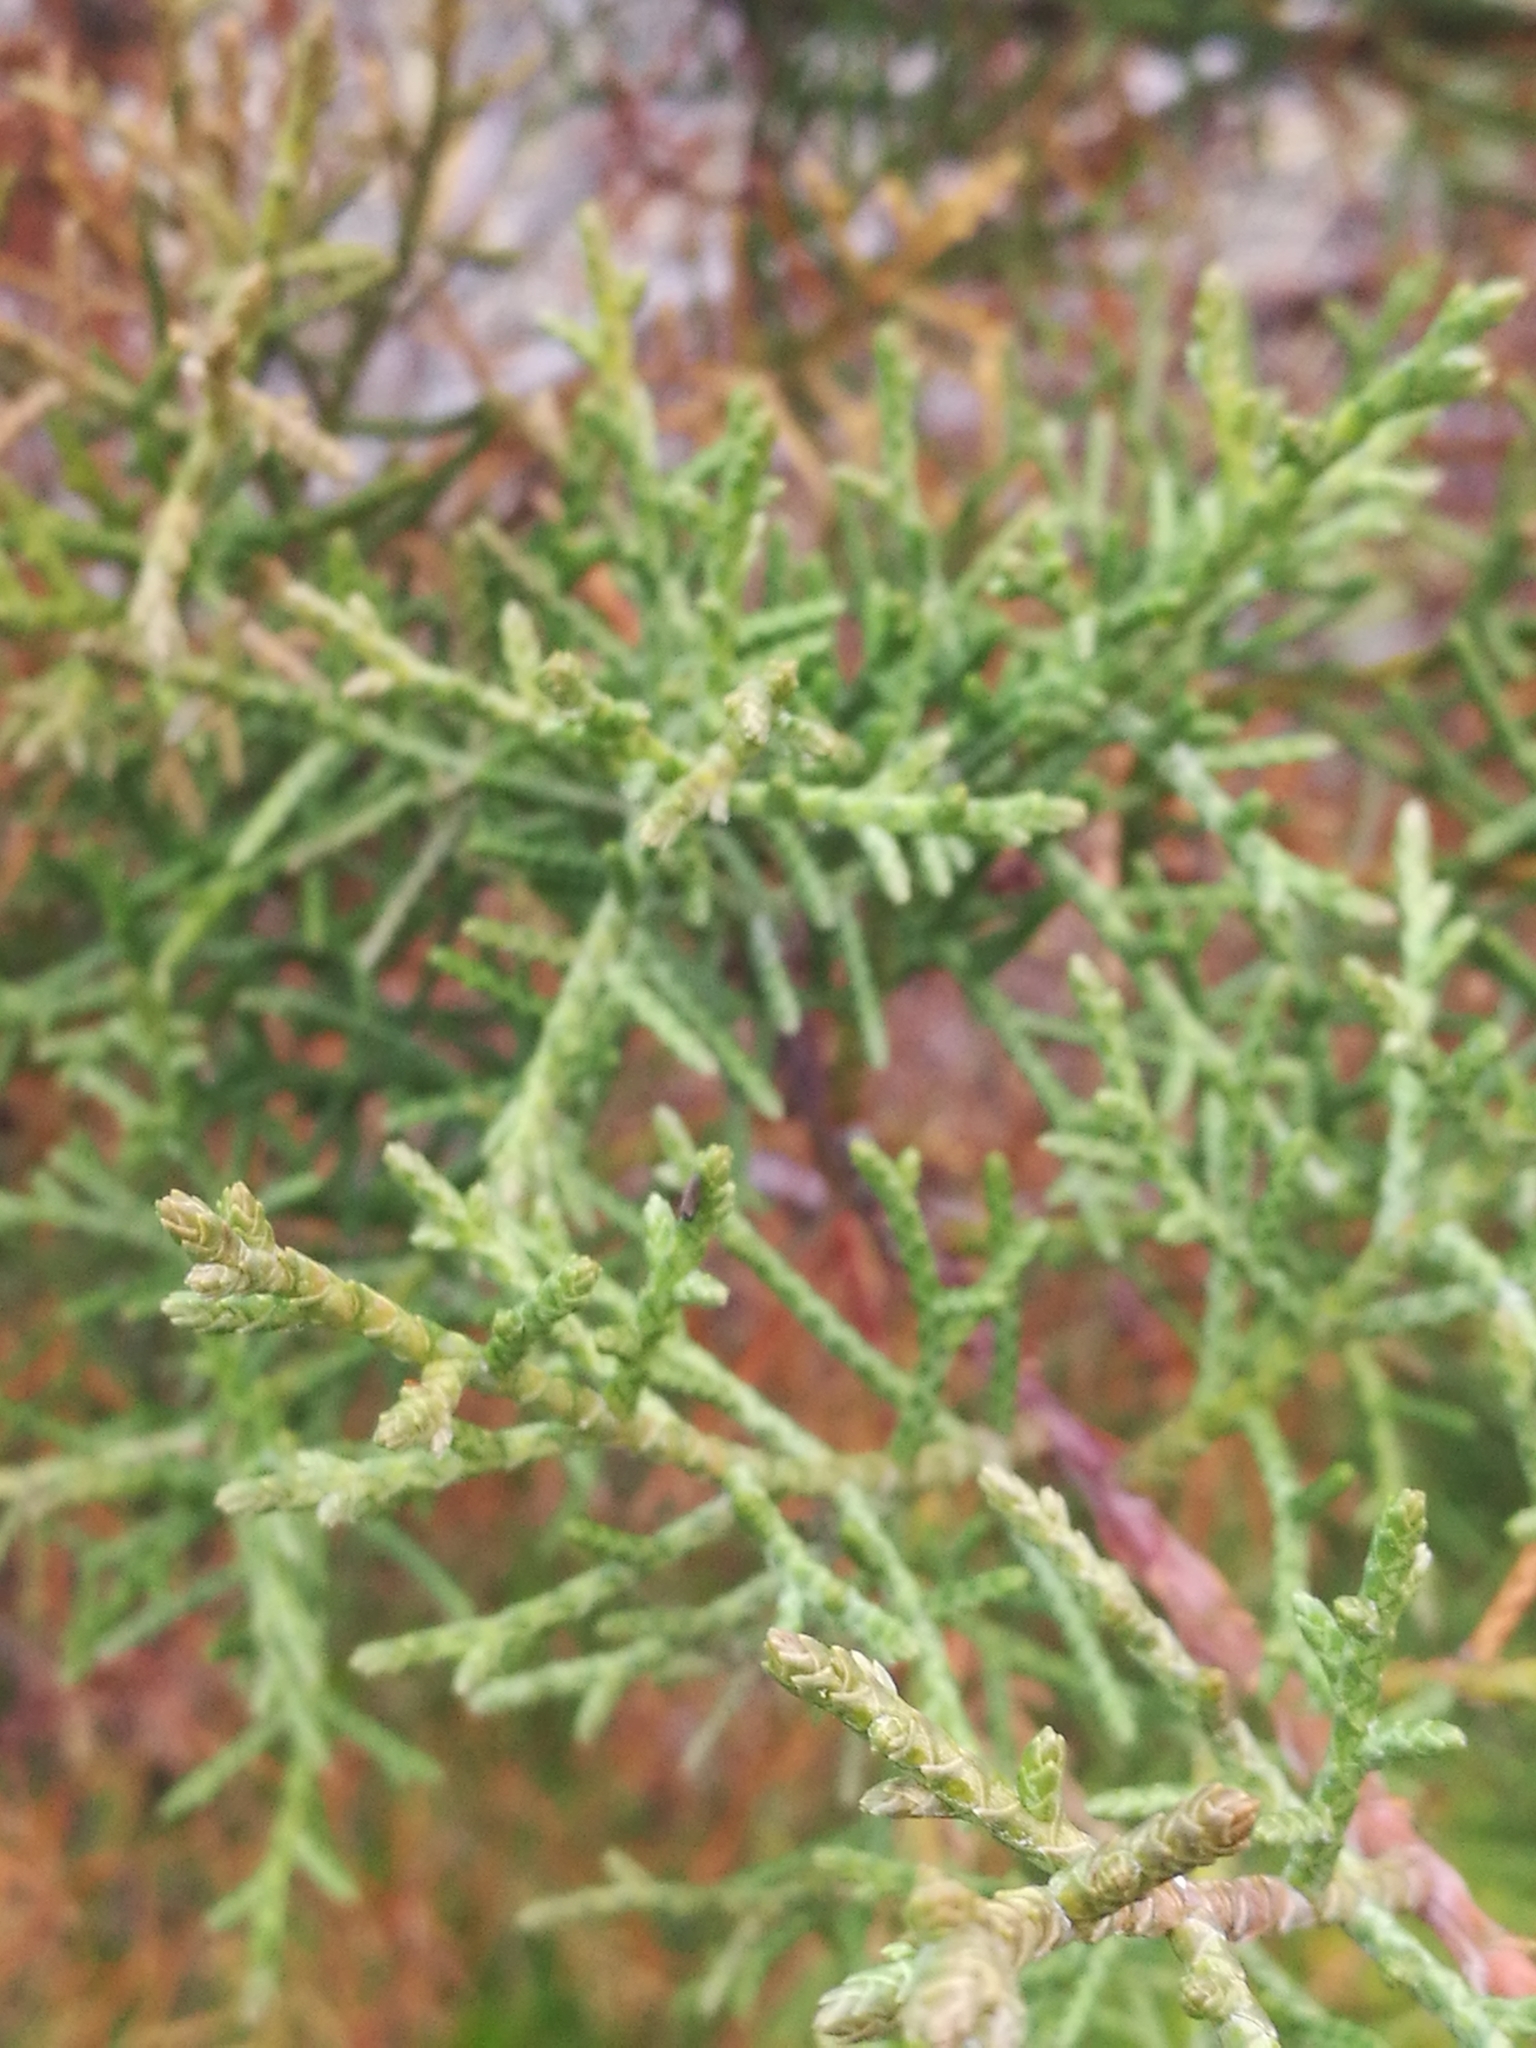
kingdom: Plantae
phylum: Tracheophyta
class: Pinopsida
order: Pinales
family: Cupressaceae
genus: Cupressus
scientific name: Cupressus macrocarpa
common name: Monterey cypress
